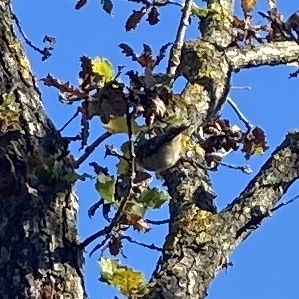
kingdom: Animalia
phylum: Chordata
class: Aves
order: Passeriformes
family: Regulidae
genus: Regulus
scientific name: Regulus ignicapilla
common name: Firecrest
